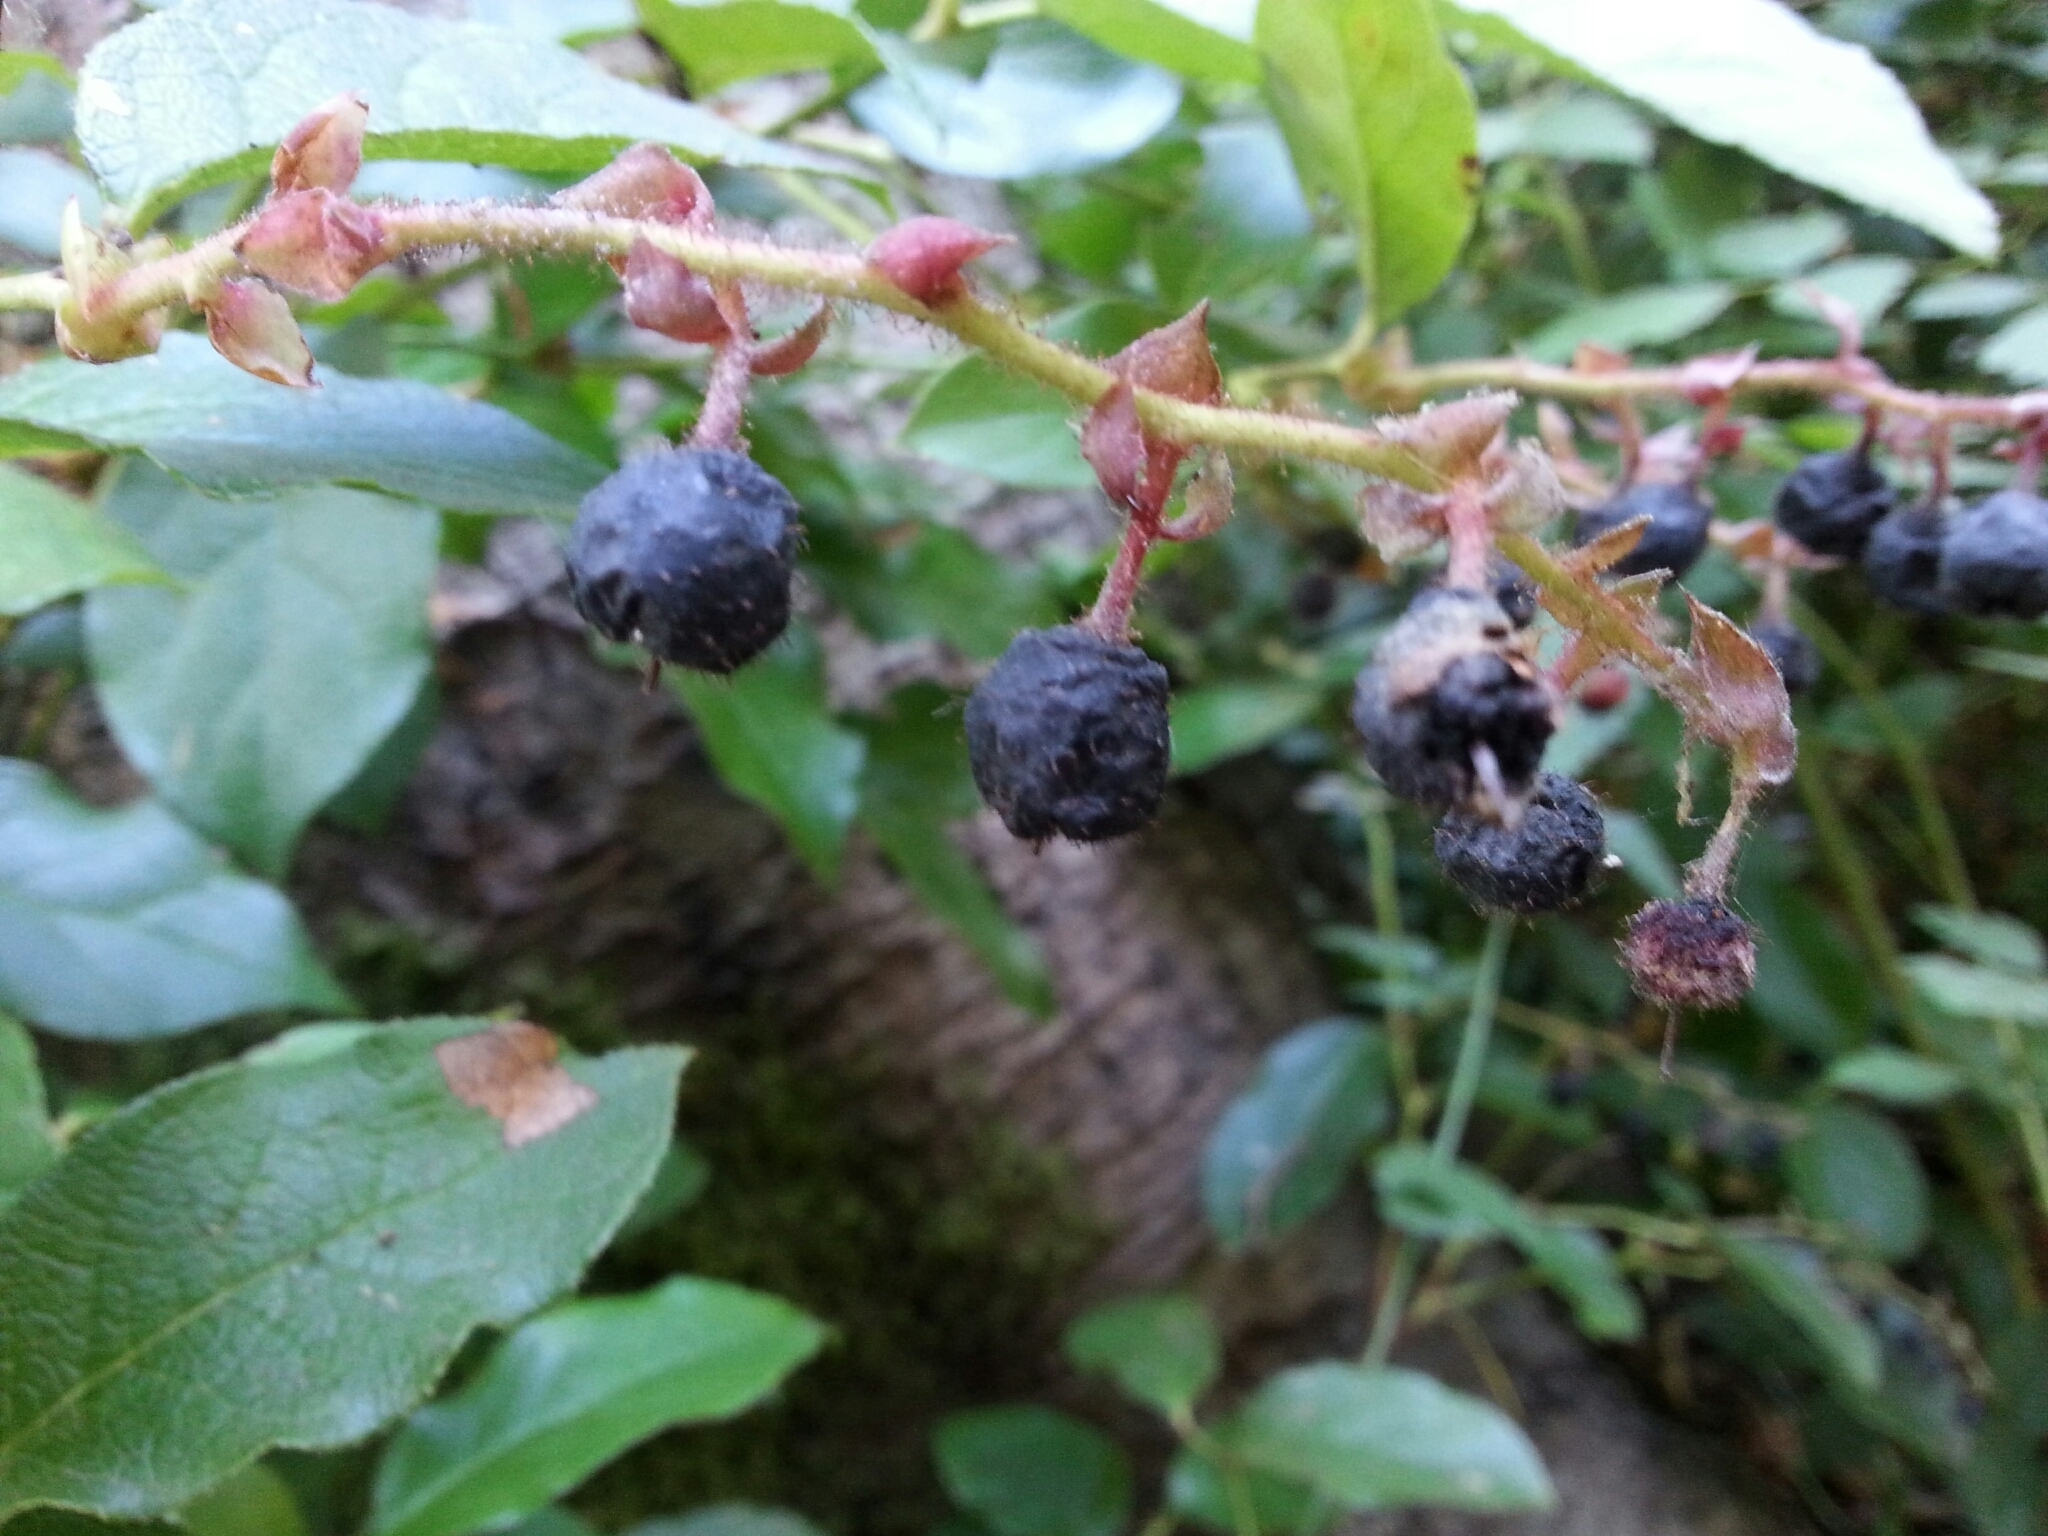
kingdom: Plantae
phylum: Tracheophyta
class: Magnoliopsida
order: Ericales
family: Ericaceae
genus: Gaultheria
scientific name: Gaultheria shallon
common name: Shallon
